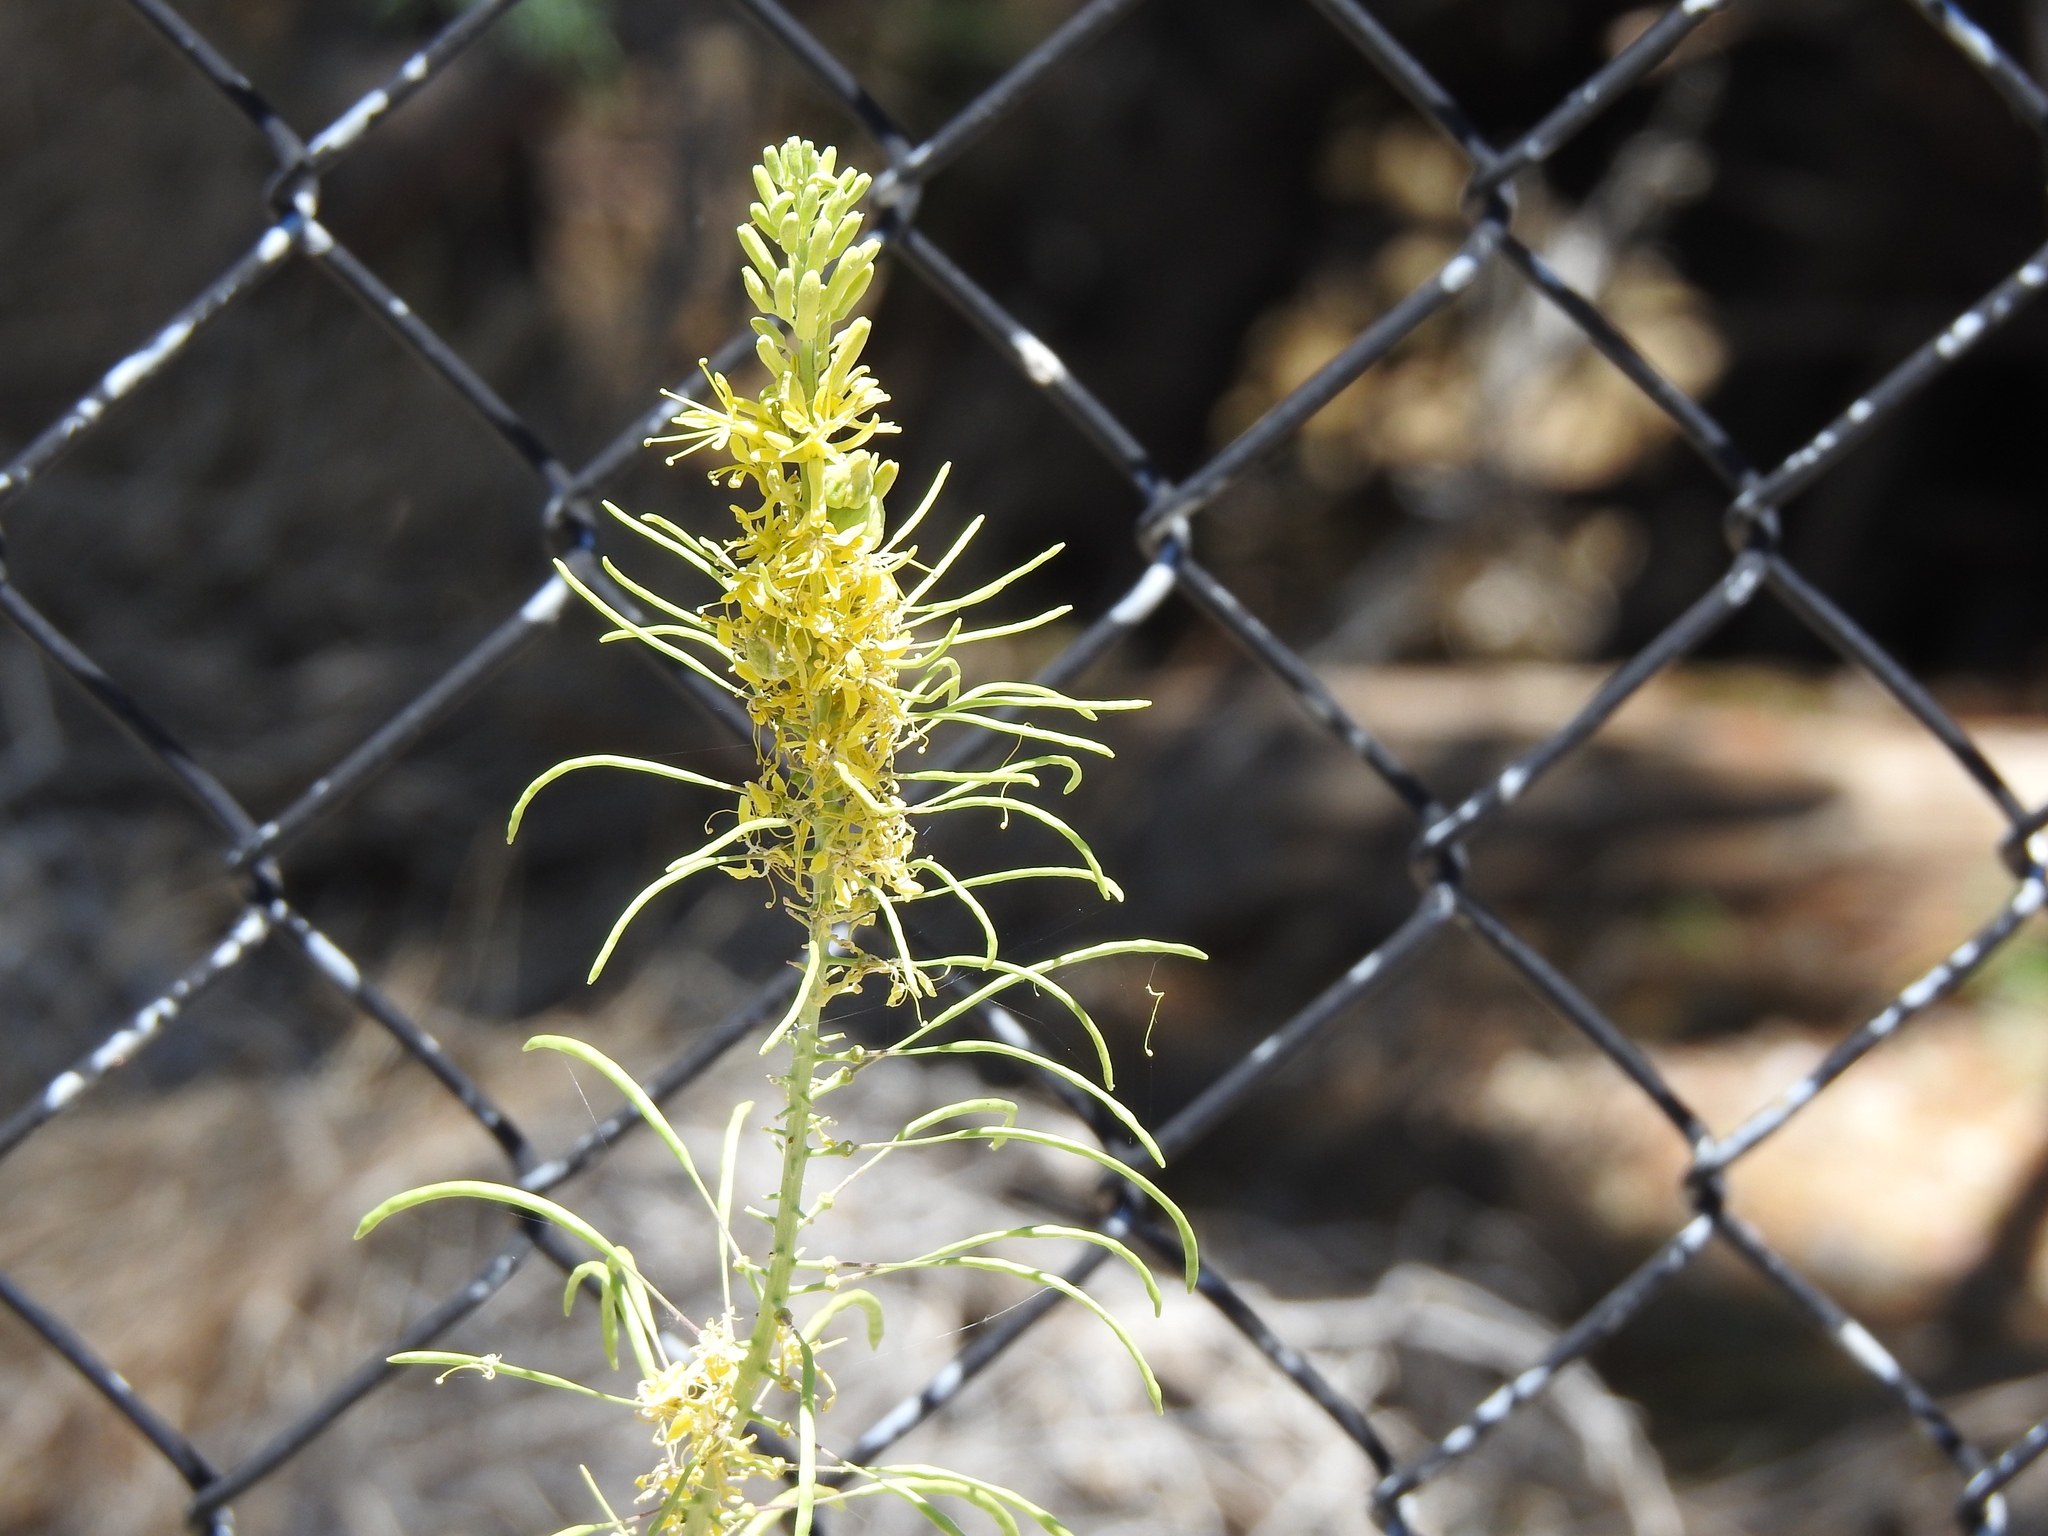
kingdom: Plantae
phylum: Tracheophyta
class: Magnoliopsida
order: Brassicales
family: Brassicaceae
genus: Stanleya
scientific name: Stanleya pinnata
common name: Prince's-plume
